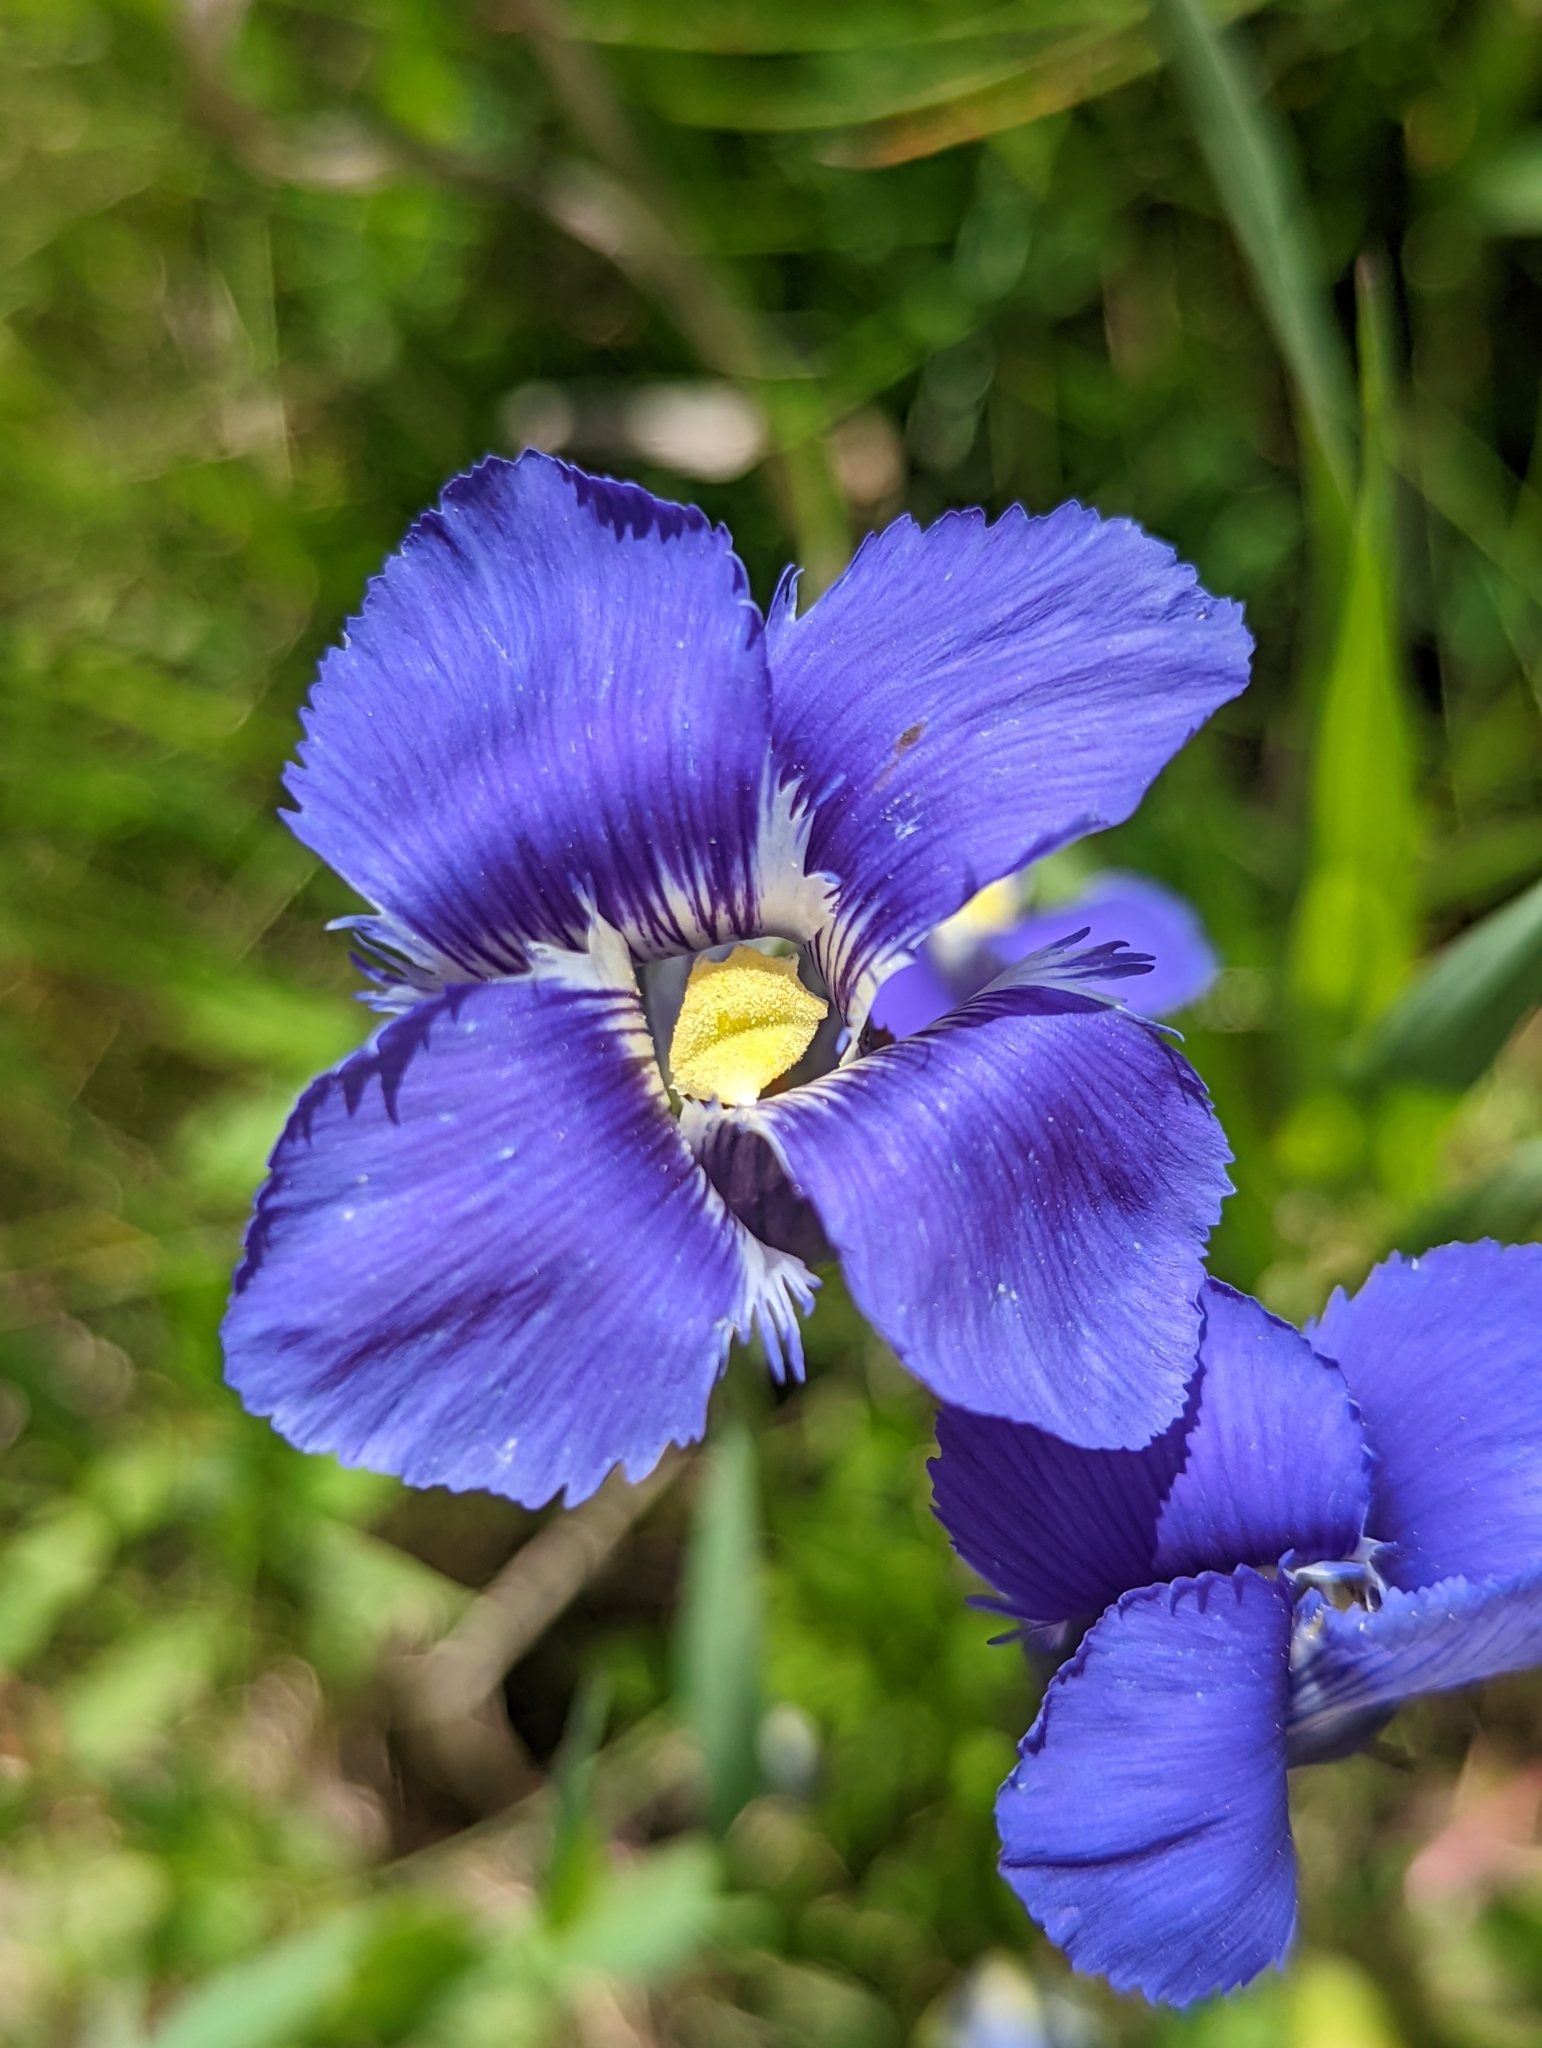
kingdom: Plantae
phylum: Tracheophyta
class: Magnoliopsida
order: Gentianales
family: Gentianaceae
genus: Gentianopsis
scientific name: Gentianopsis thermalis
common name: Rocky mountain fringed-gentian
